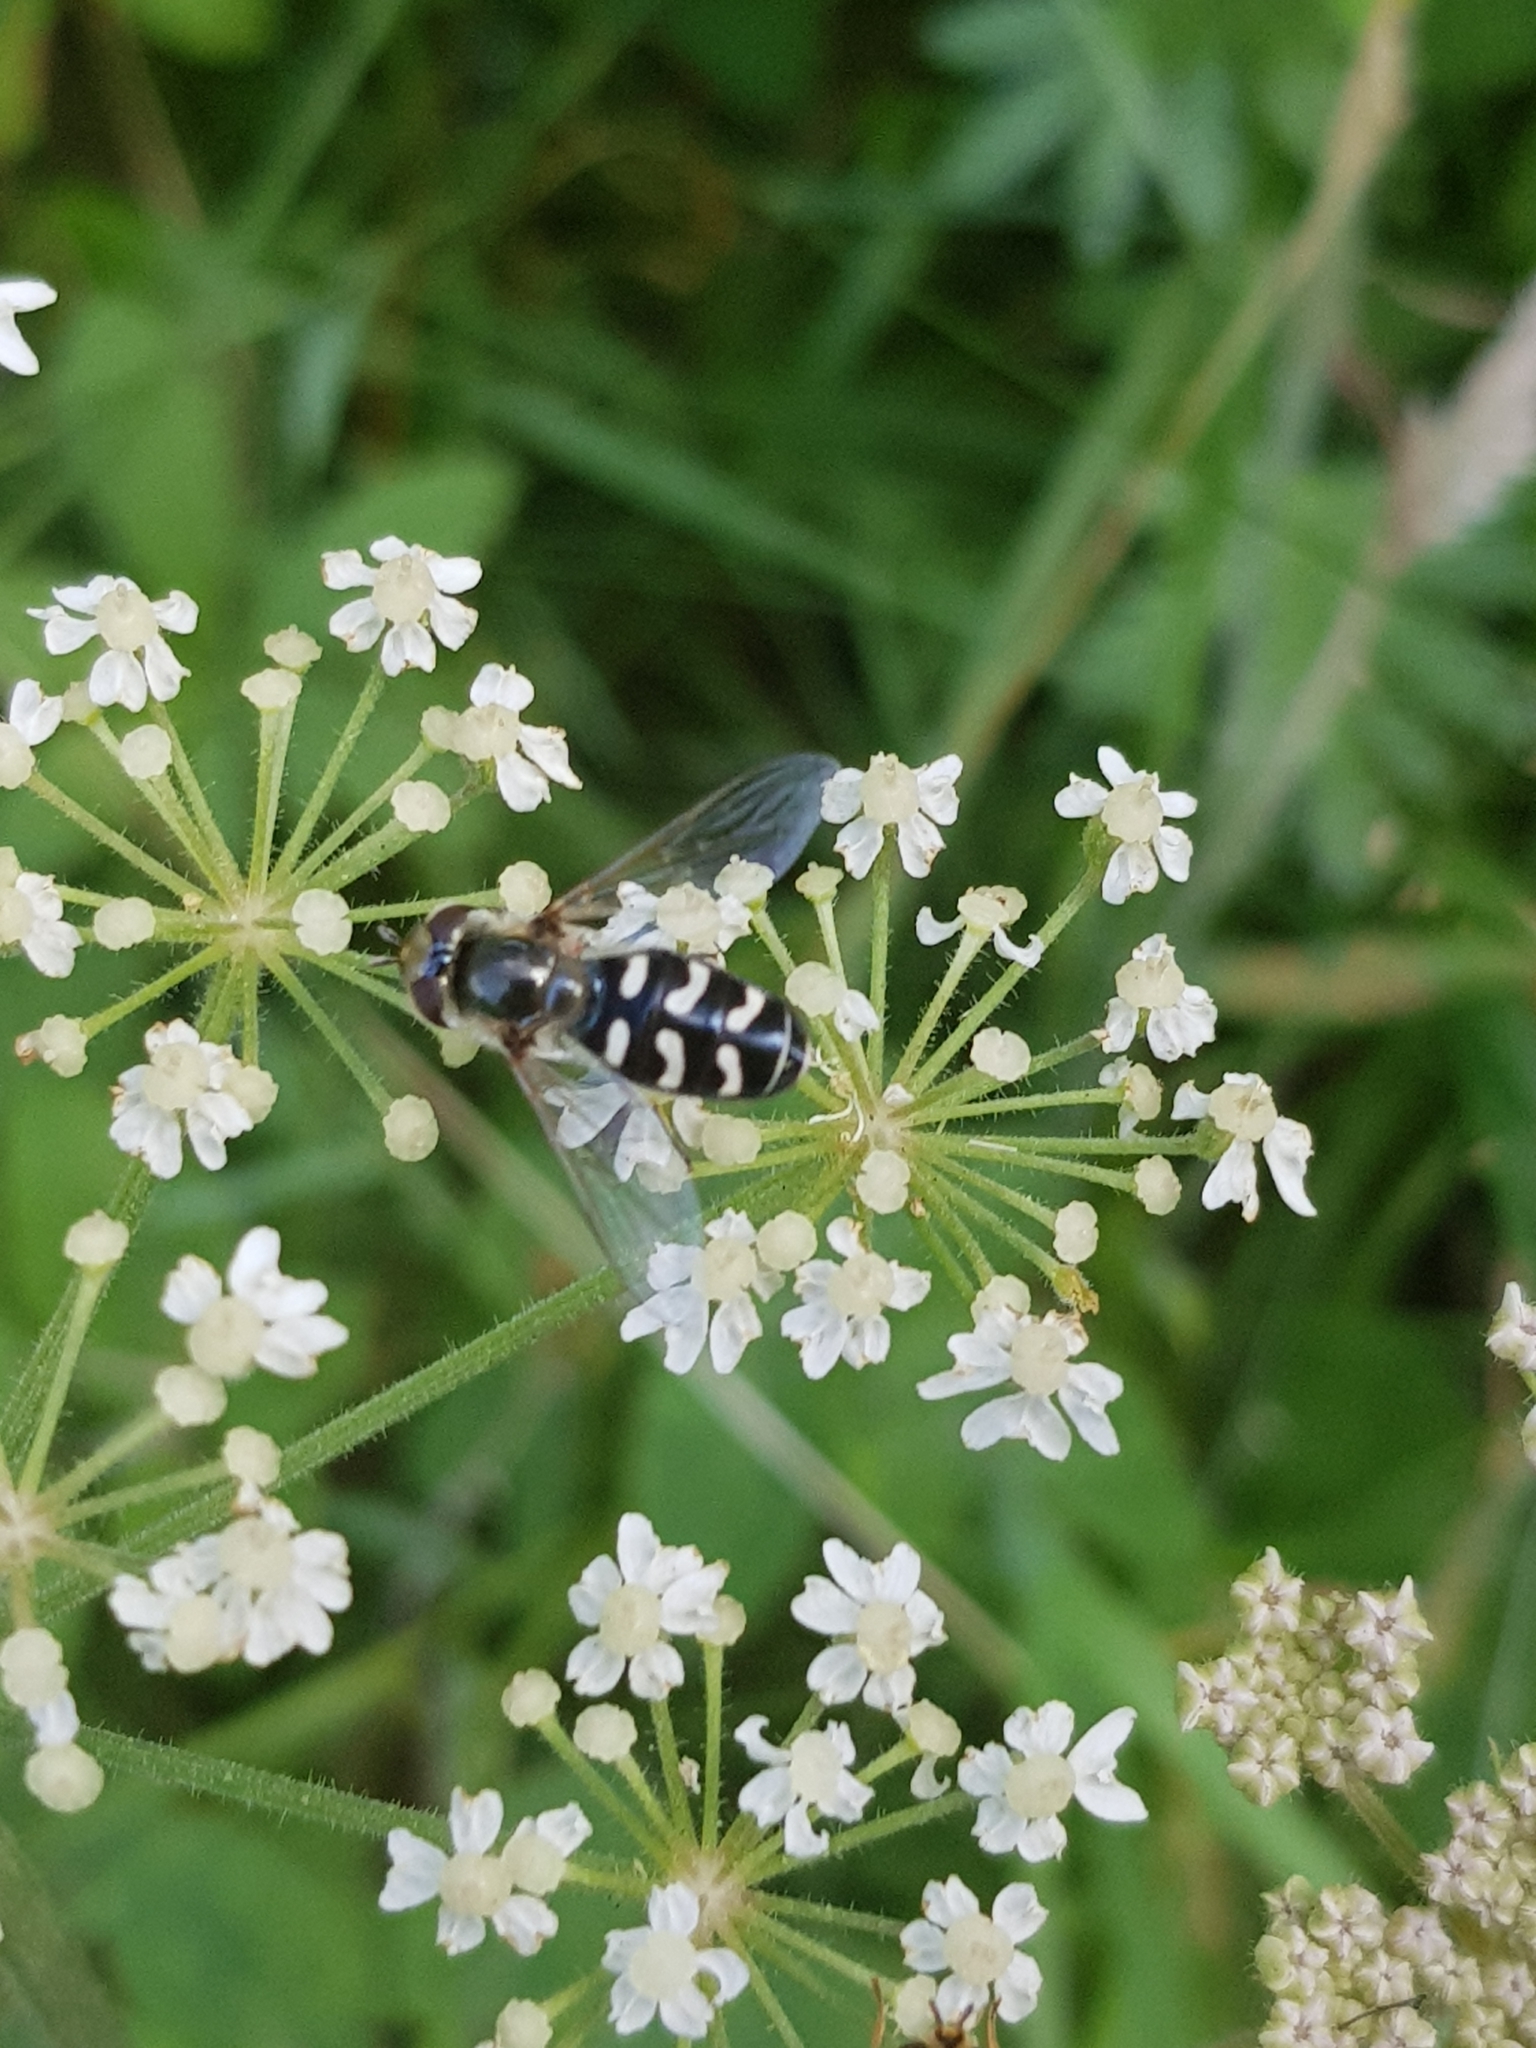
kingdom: Animalia
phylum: Arthropoda
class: Insecta
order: Diptera
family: Syrphidae
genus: Scaeva
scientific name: Scaeva pyrastri
